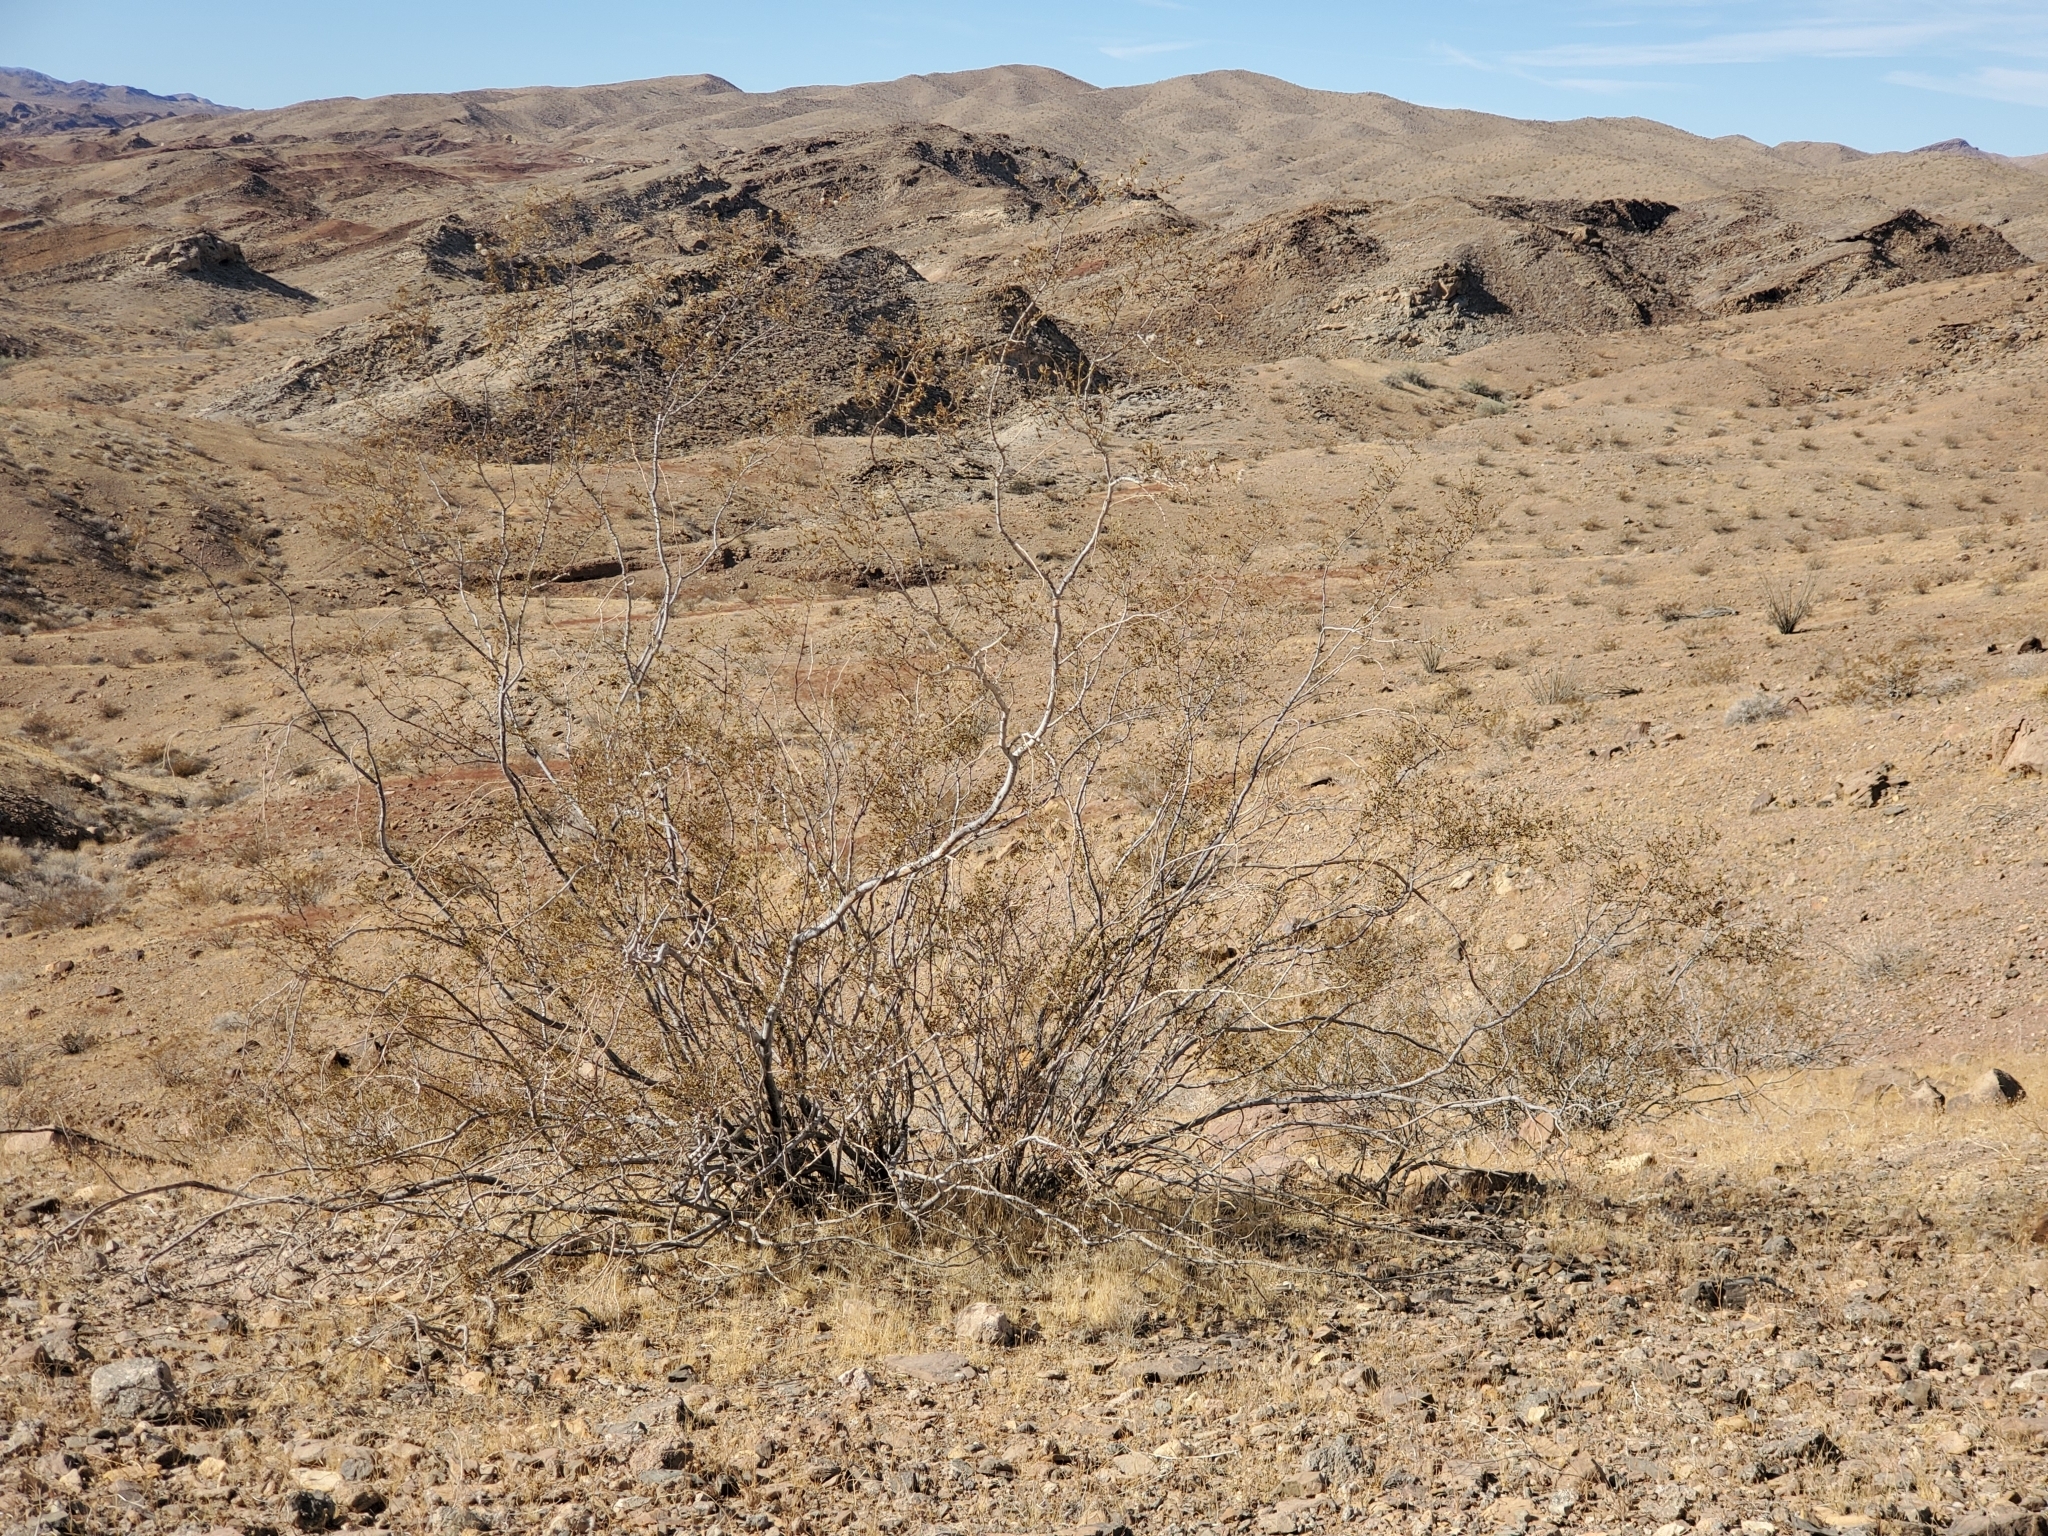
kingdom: Plantae
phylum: Tracheophyta
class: Magnoliopsida
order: Zygophyllales
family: Zygophyllaceae
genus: Larrea
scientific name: Larrea tridentata
